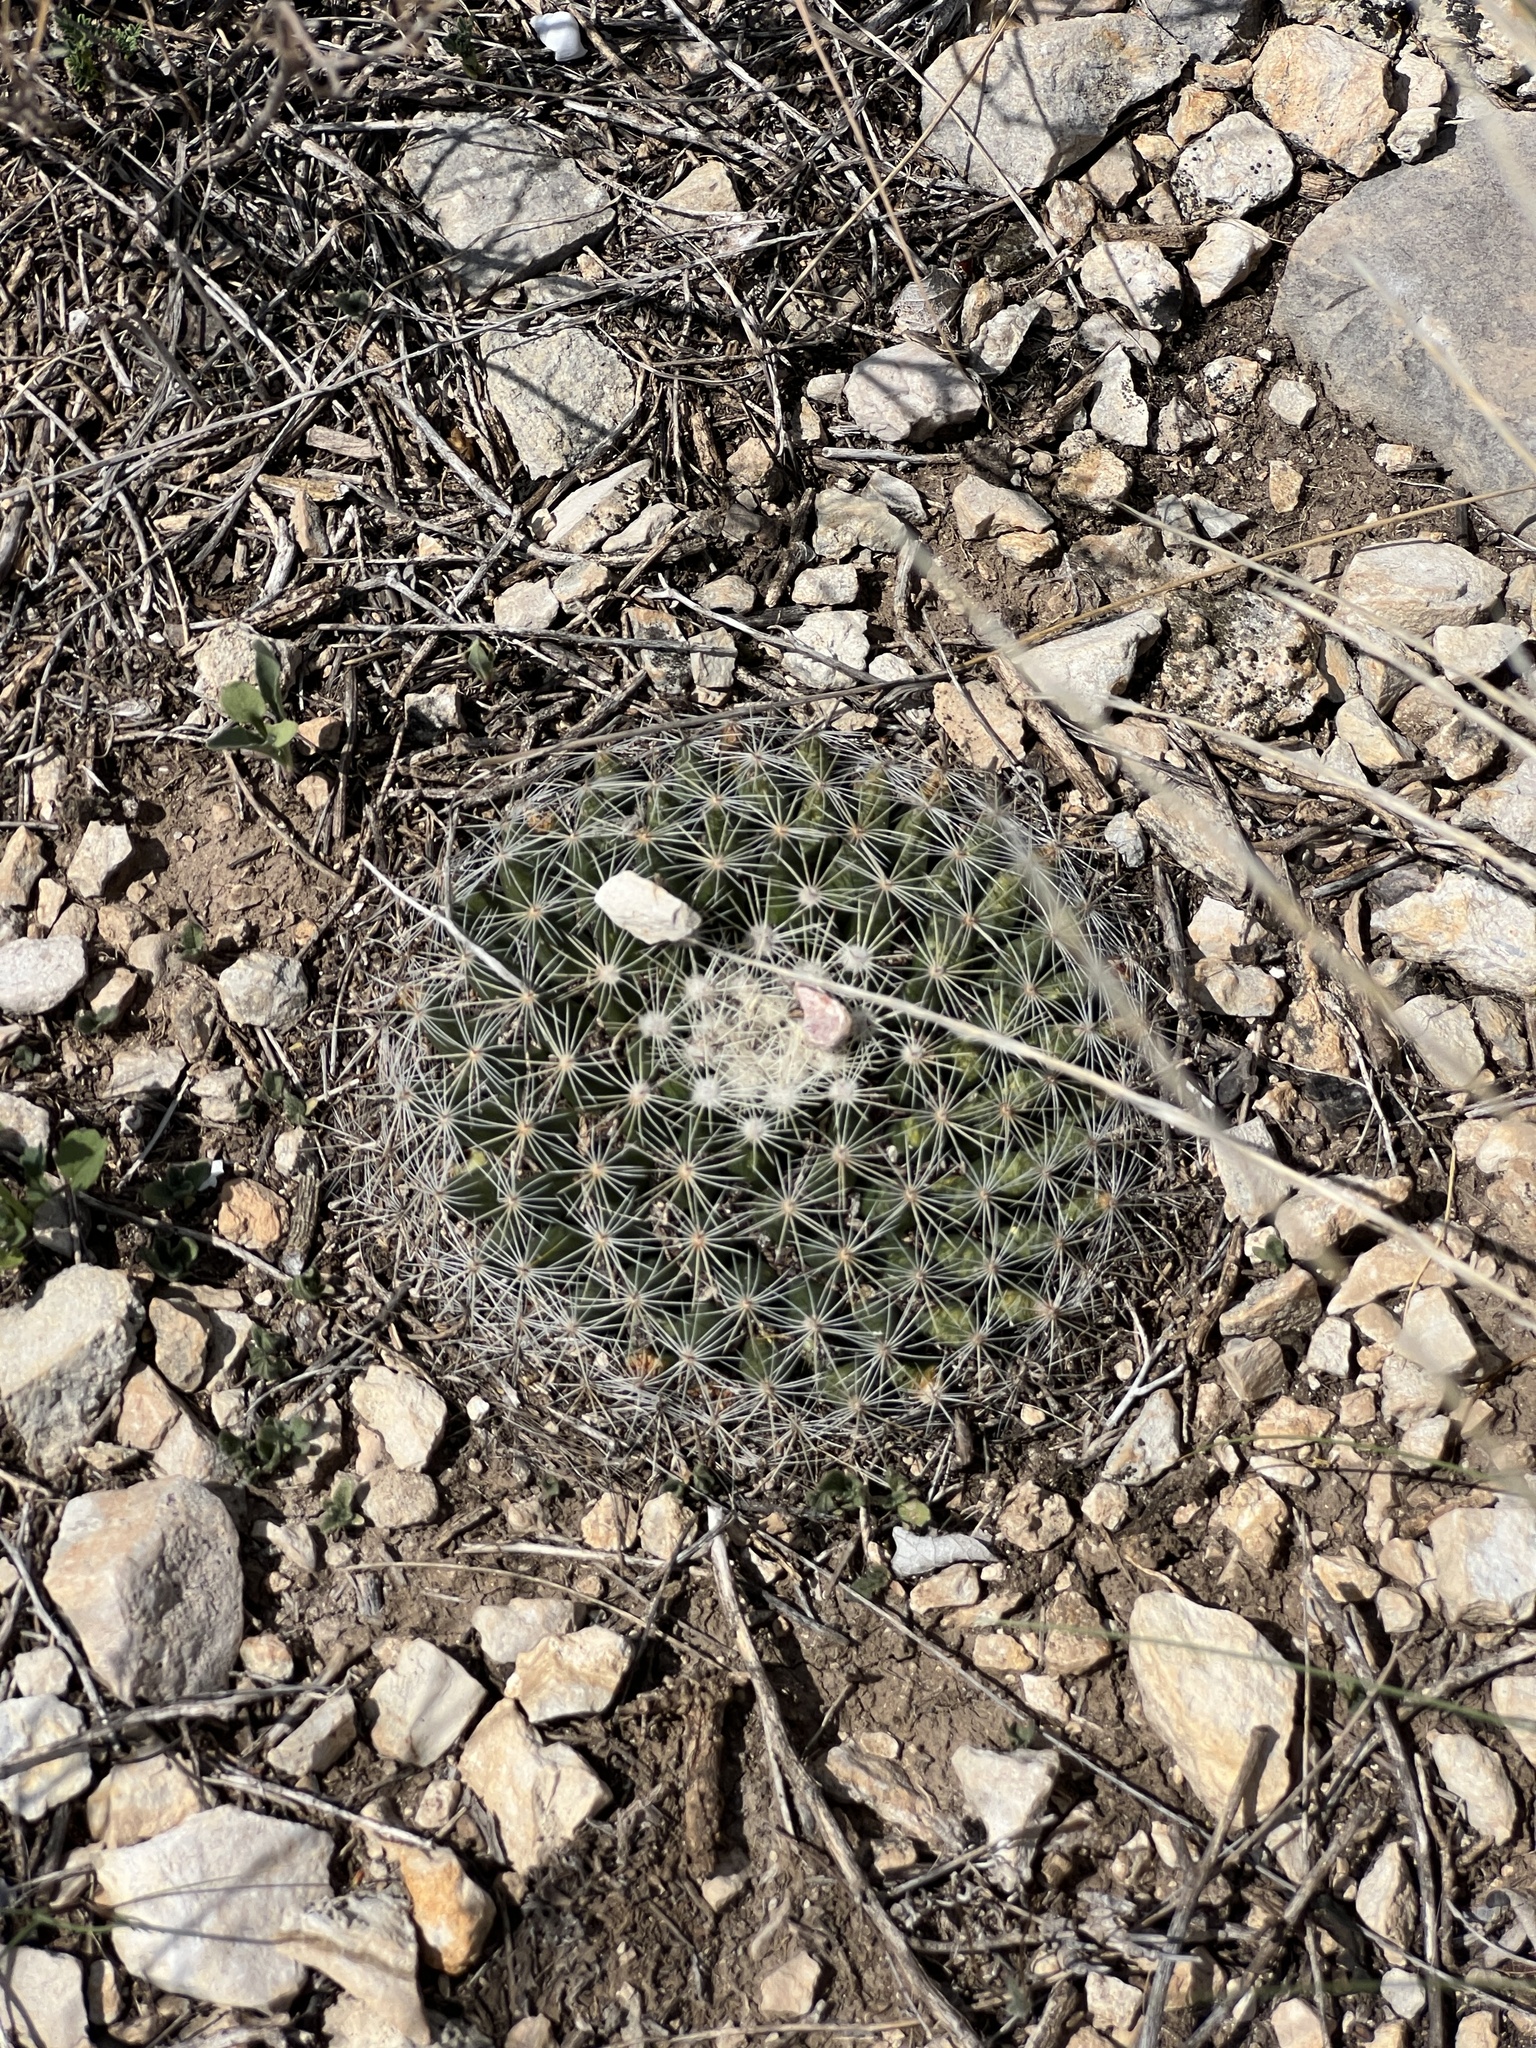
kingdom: Plantae
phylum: Tracheophyta
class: Magnoliopsida
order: Caryophyllales
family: Cactaceae
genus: Mammillaria
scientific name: Mammillaria heyderi
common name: Little nipple cactus
